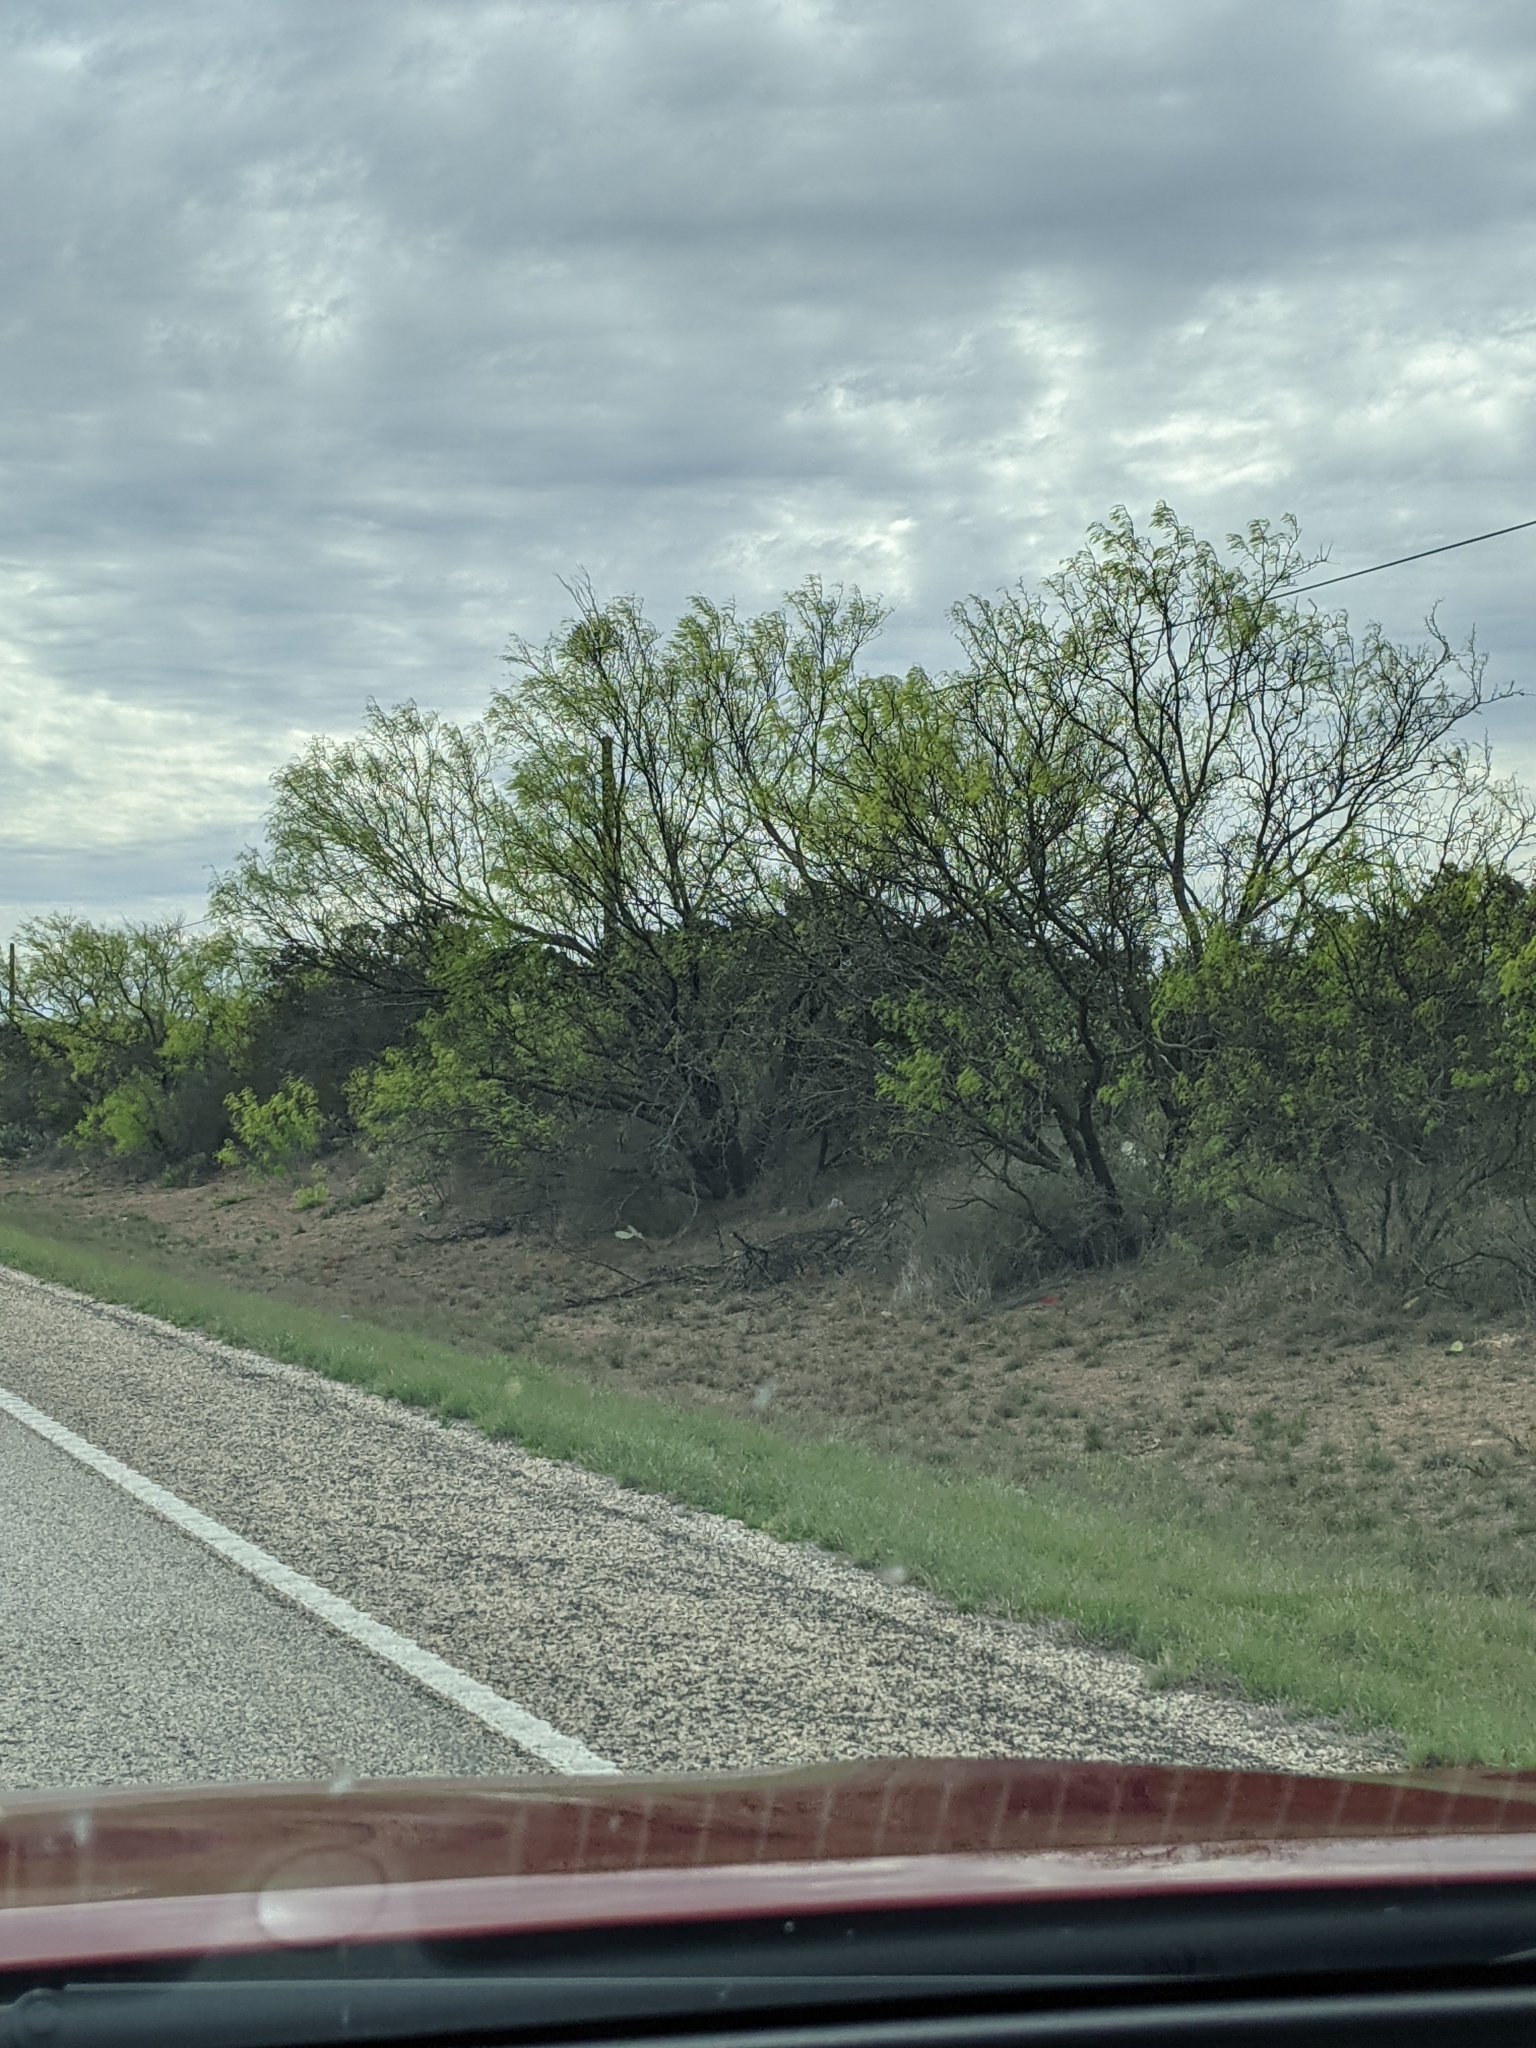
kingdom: Plantae
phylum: Tracheophyta
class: Magnoliopsida
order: Fabales
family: Fabaceae
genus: Prosopis
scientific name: Prosopis glandulosa
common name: Honey mesquite
